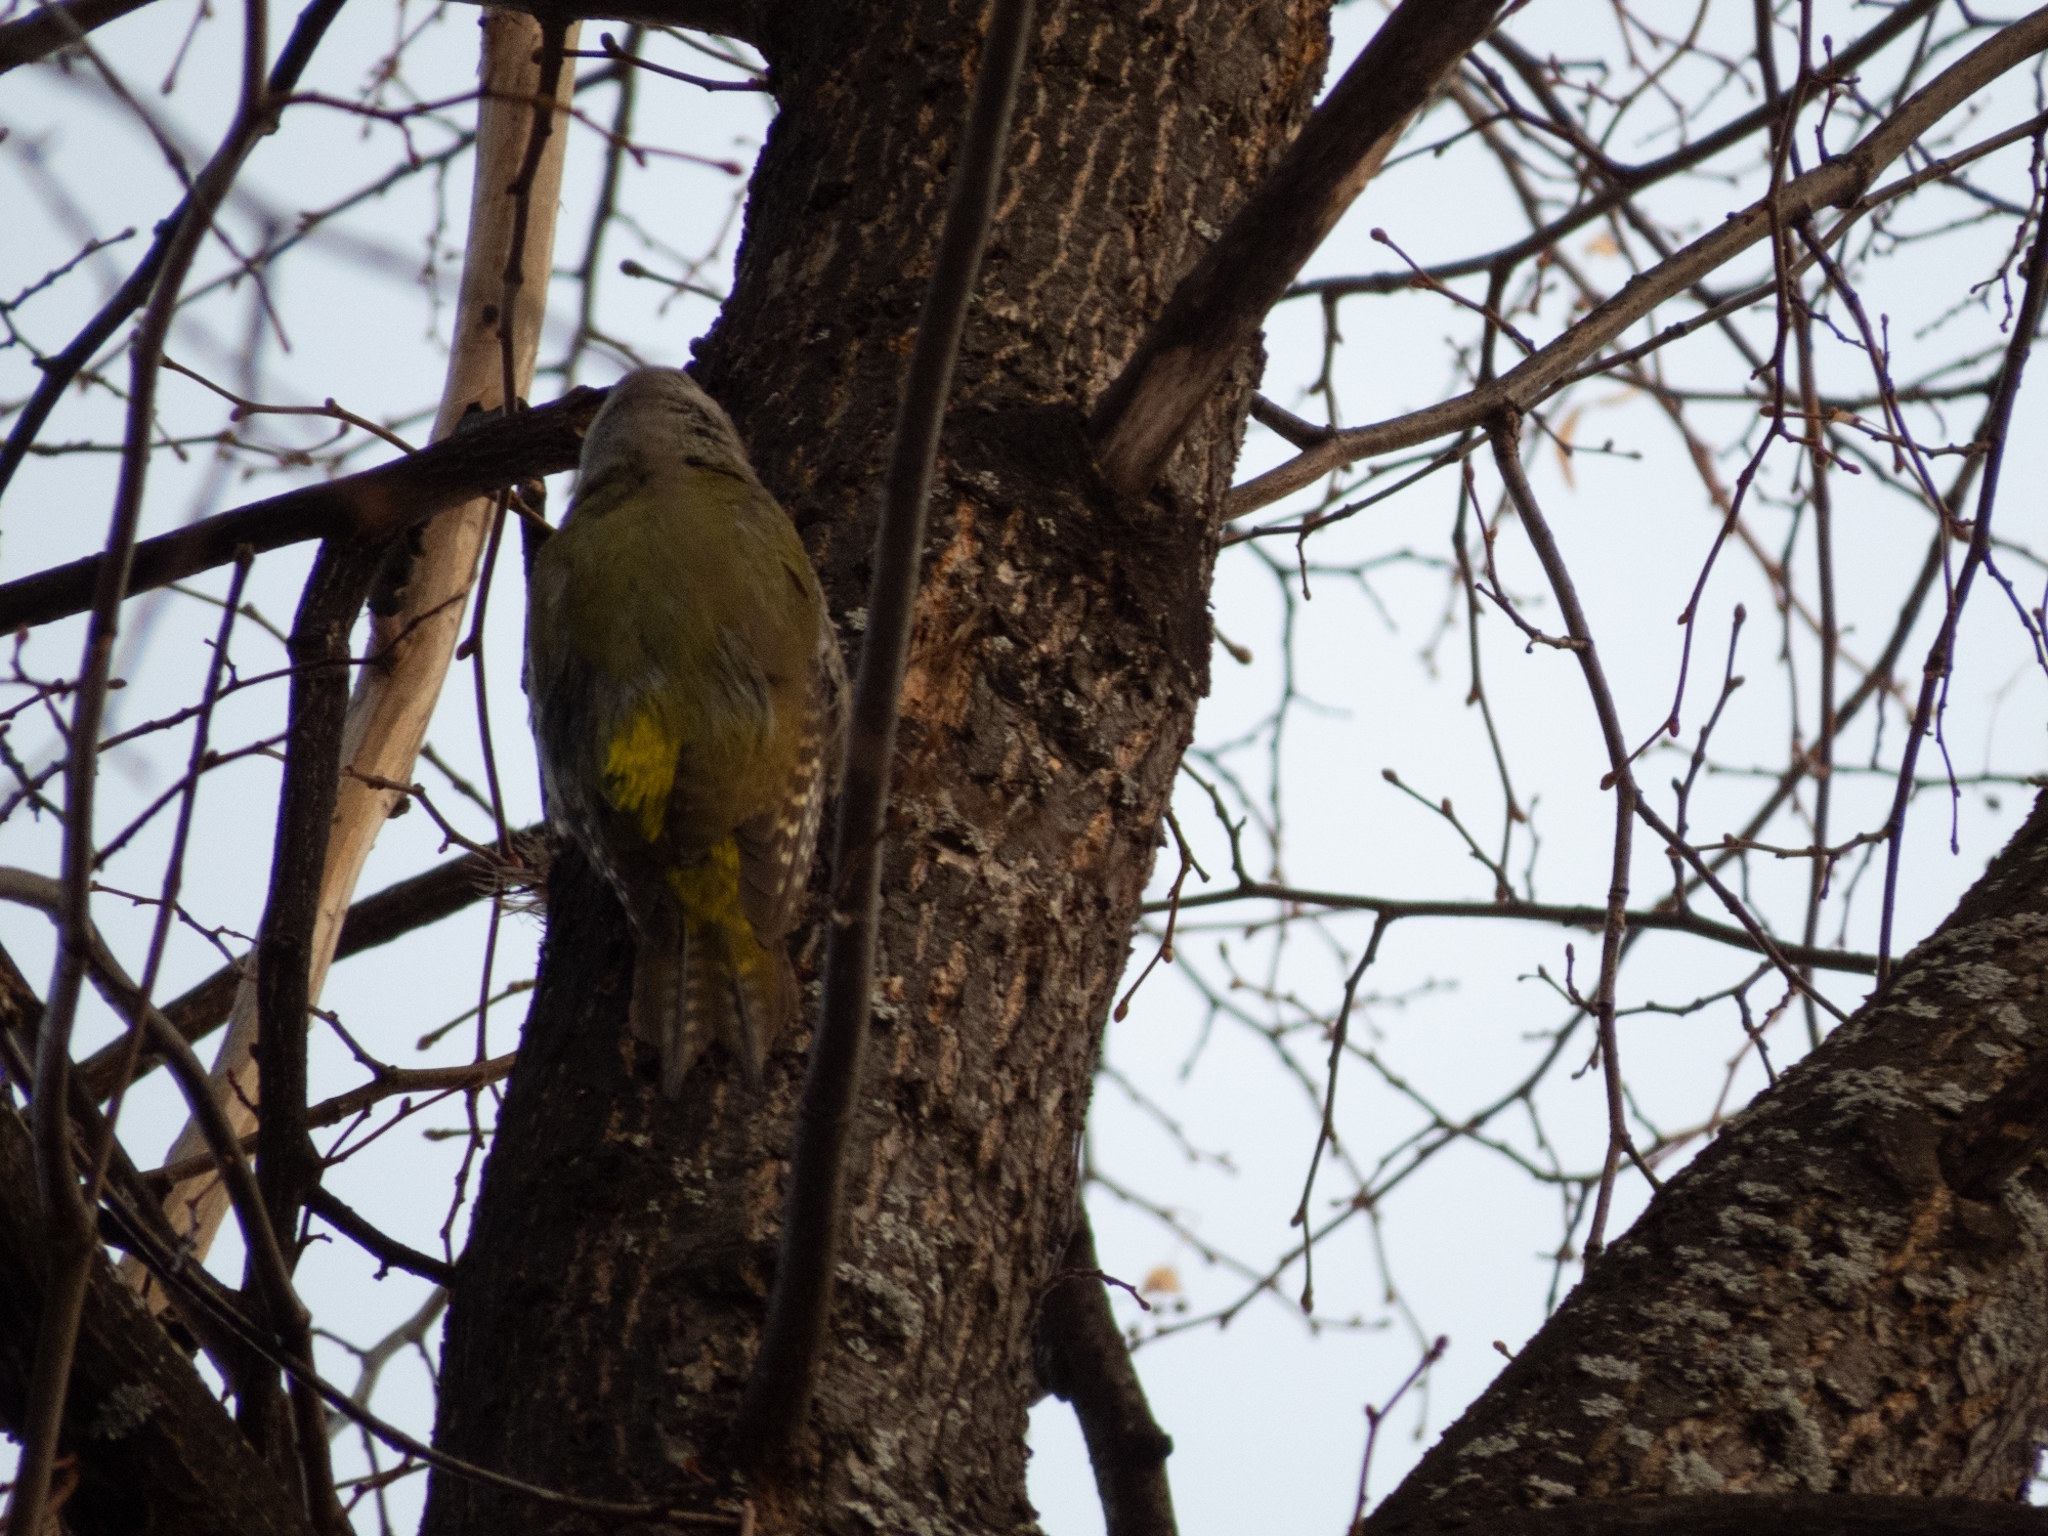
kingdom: Animalia
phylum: Chordata
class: Aves
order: Piciformes
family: Picidae
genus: Picus
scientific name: Picus canus
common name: Grey-headed woodpecker
